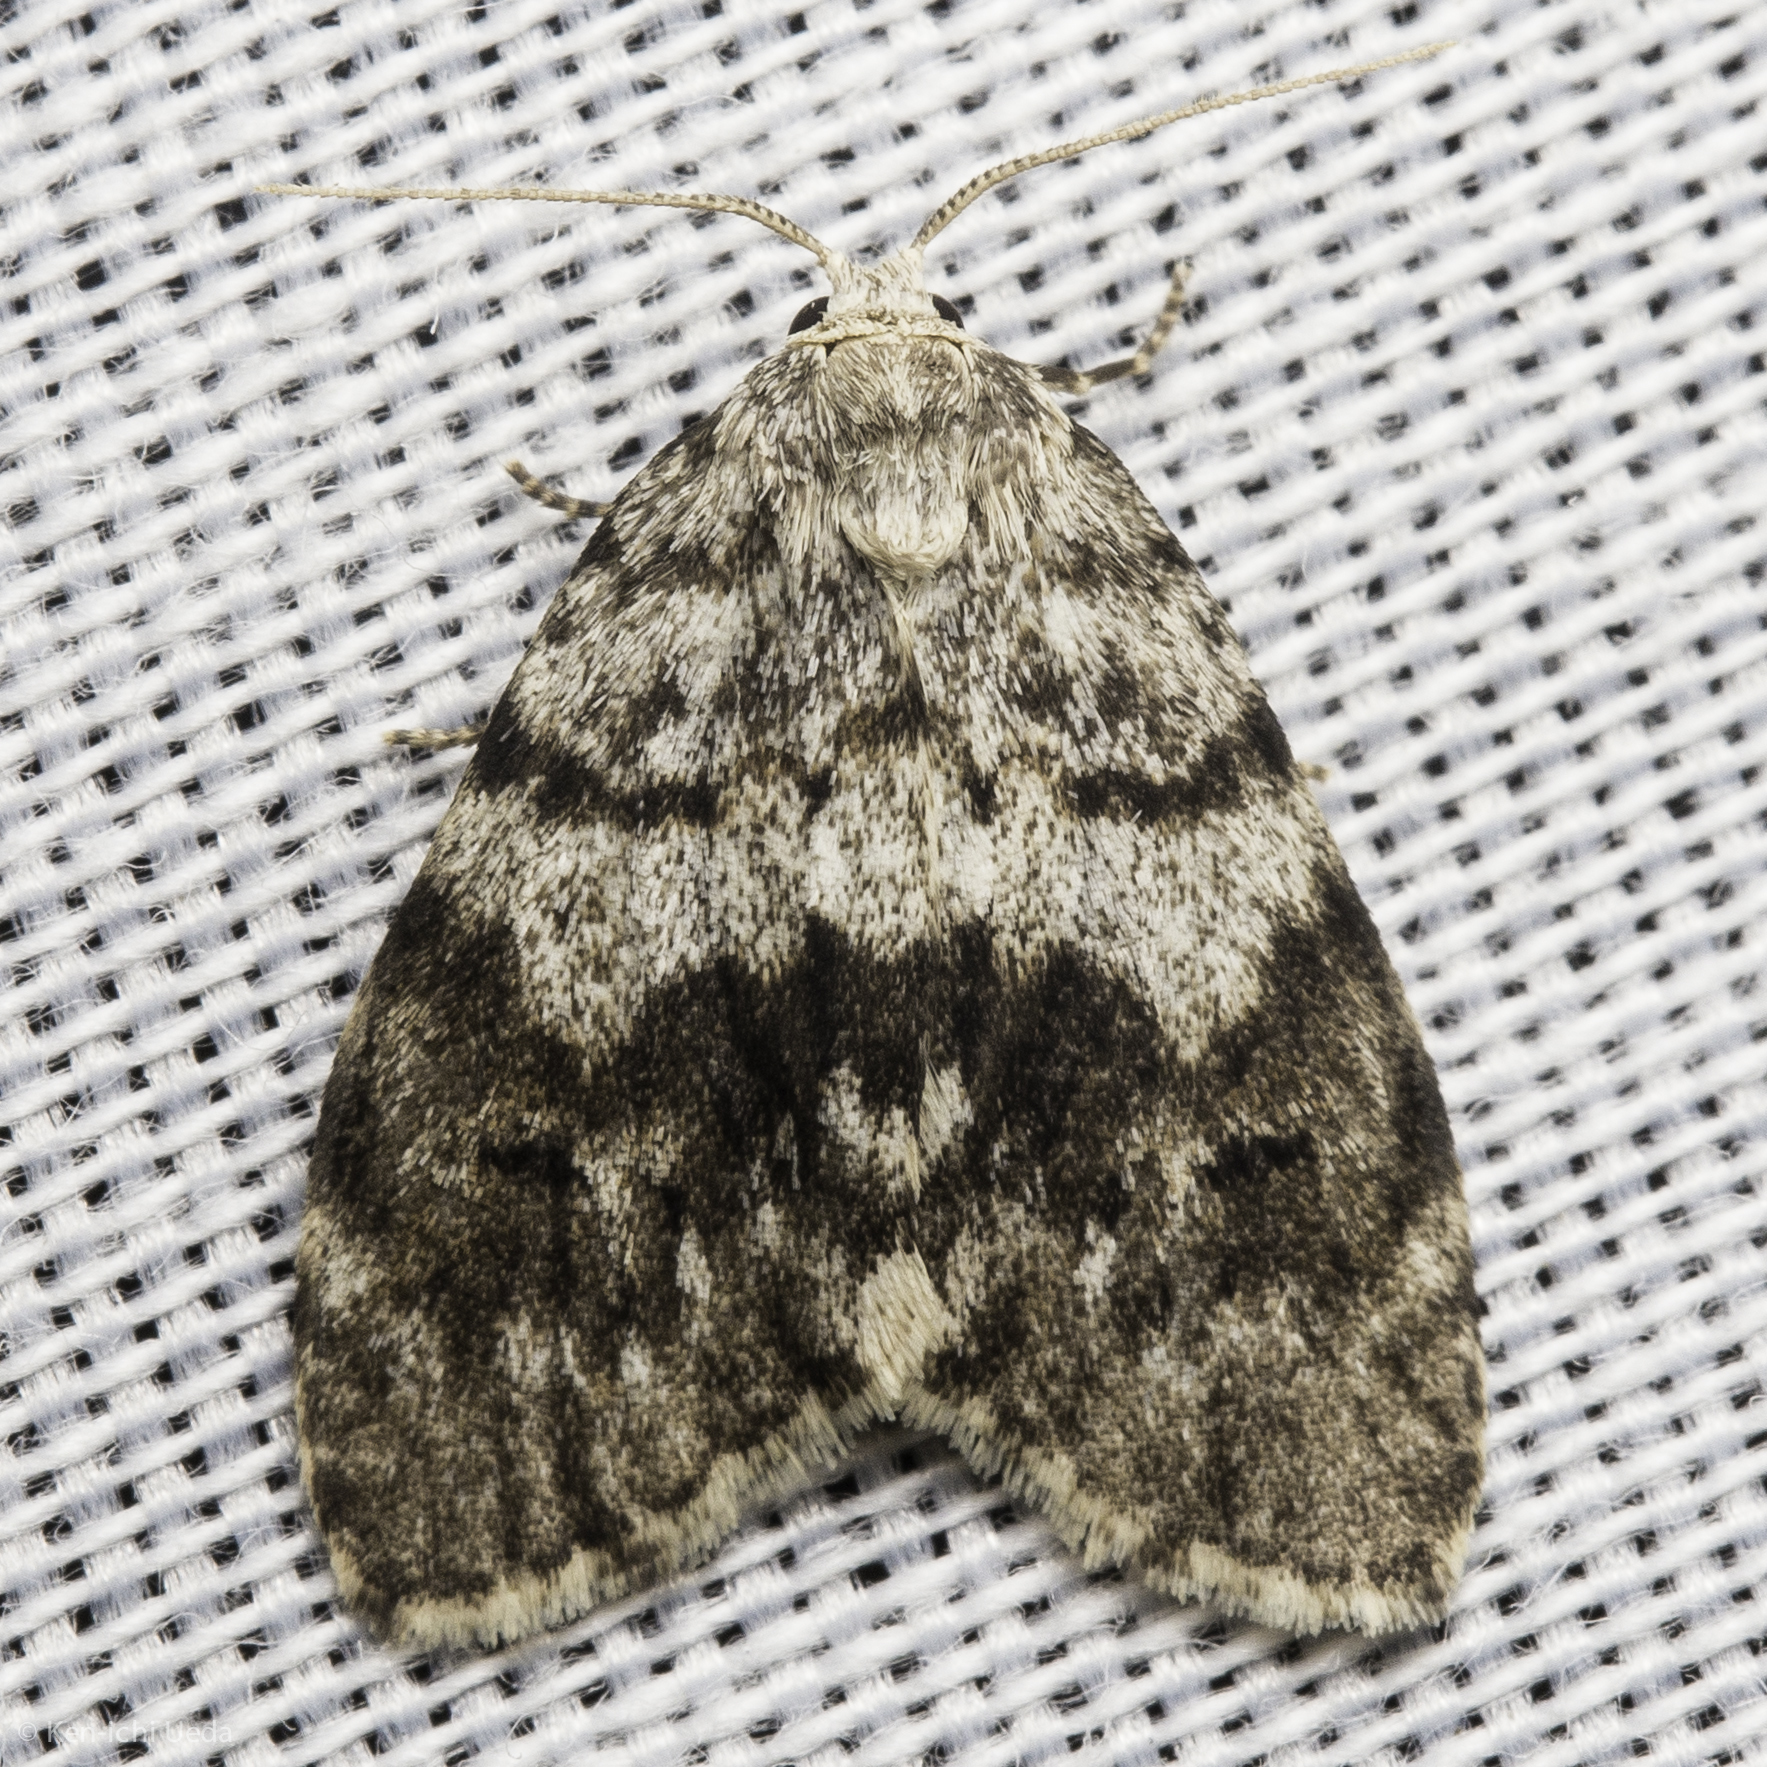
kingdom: Animalia
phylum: Arthropoda
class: Insecta
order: Lepidoptera
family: Erebidae
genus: Clemensia
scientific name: Clemensia umbrata
